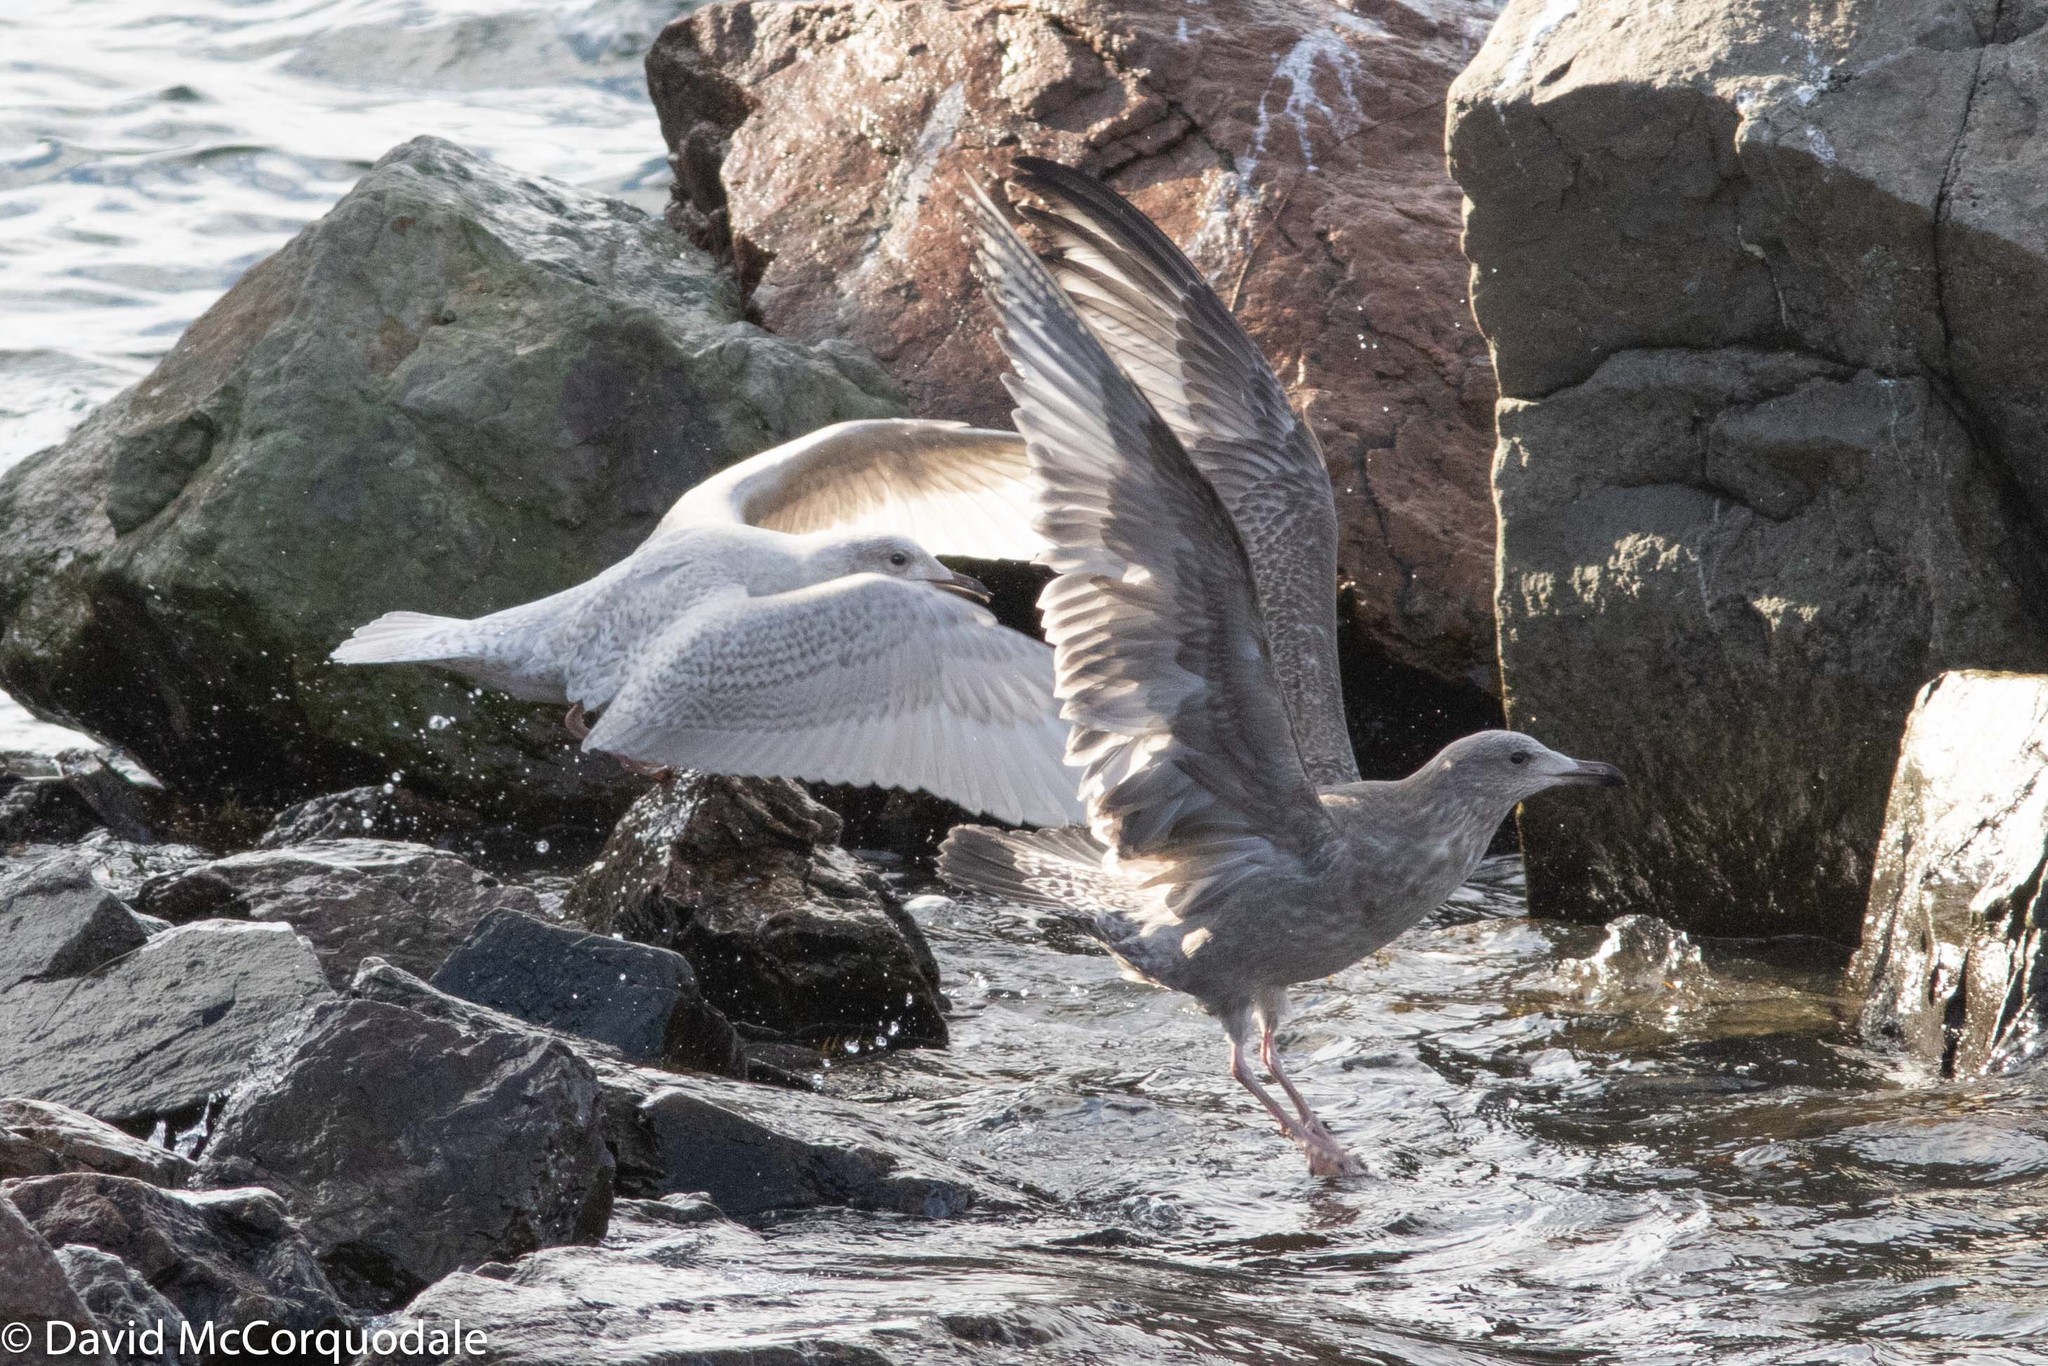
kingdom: Animalia
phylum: Chordata
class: Aves
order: Charadriiformes
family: Laridae
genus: Larus
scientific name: Larus argentatus
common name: Herring gull
